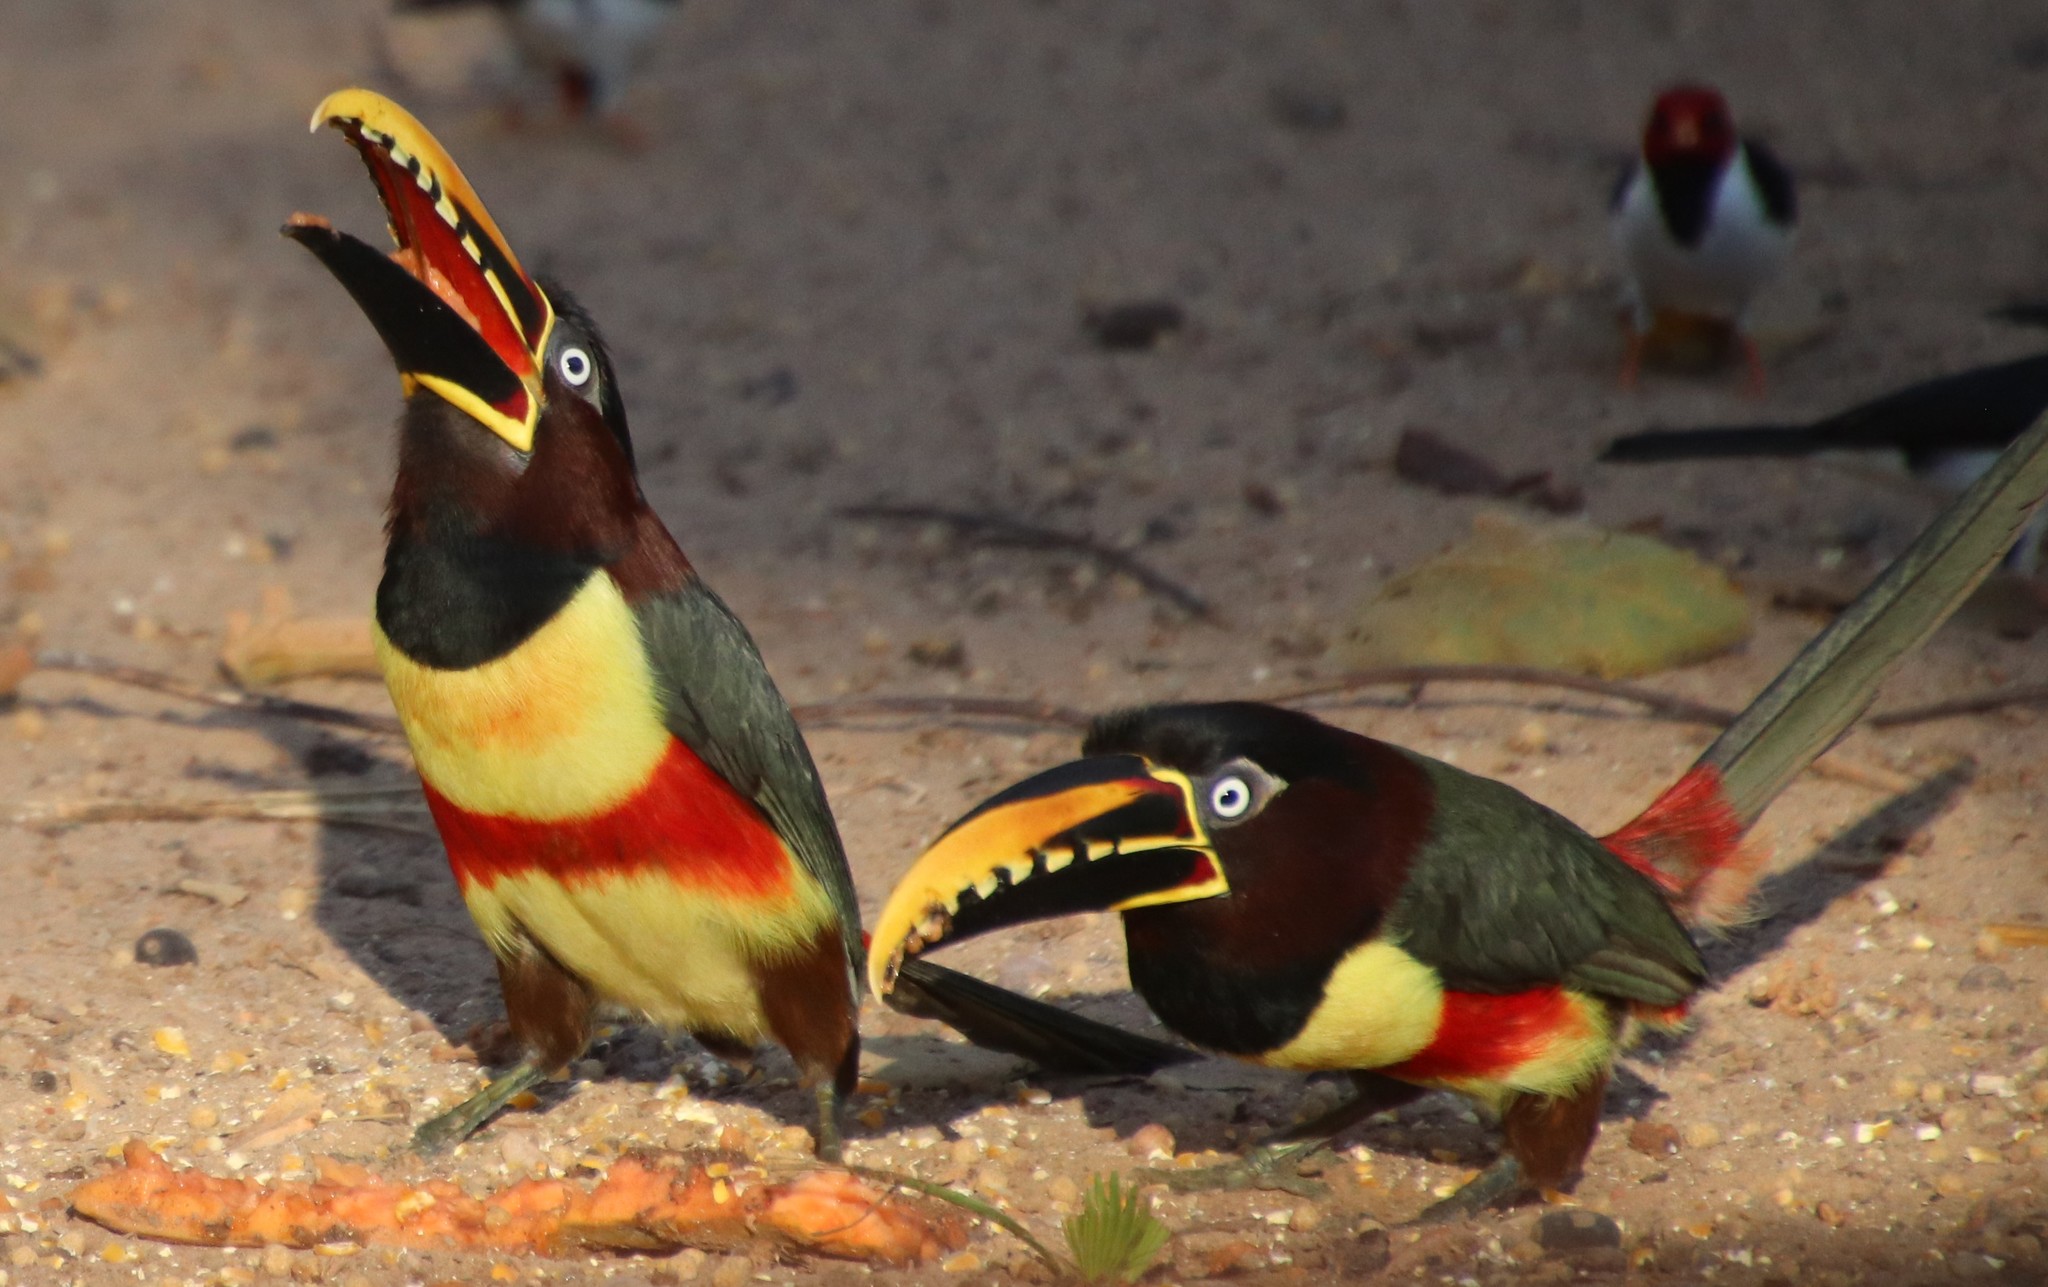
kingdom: Animalia
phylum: Chordata
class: Aves
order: Piciformes
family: Ramphastidae
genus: Pteroglossus
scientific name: Pteroglossus castanotis
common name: Chestnut-eared aracari
